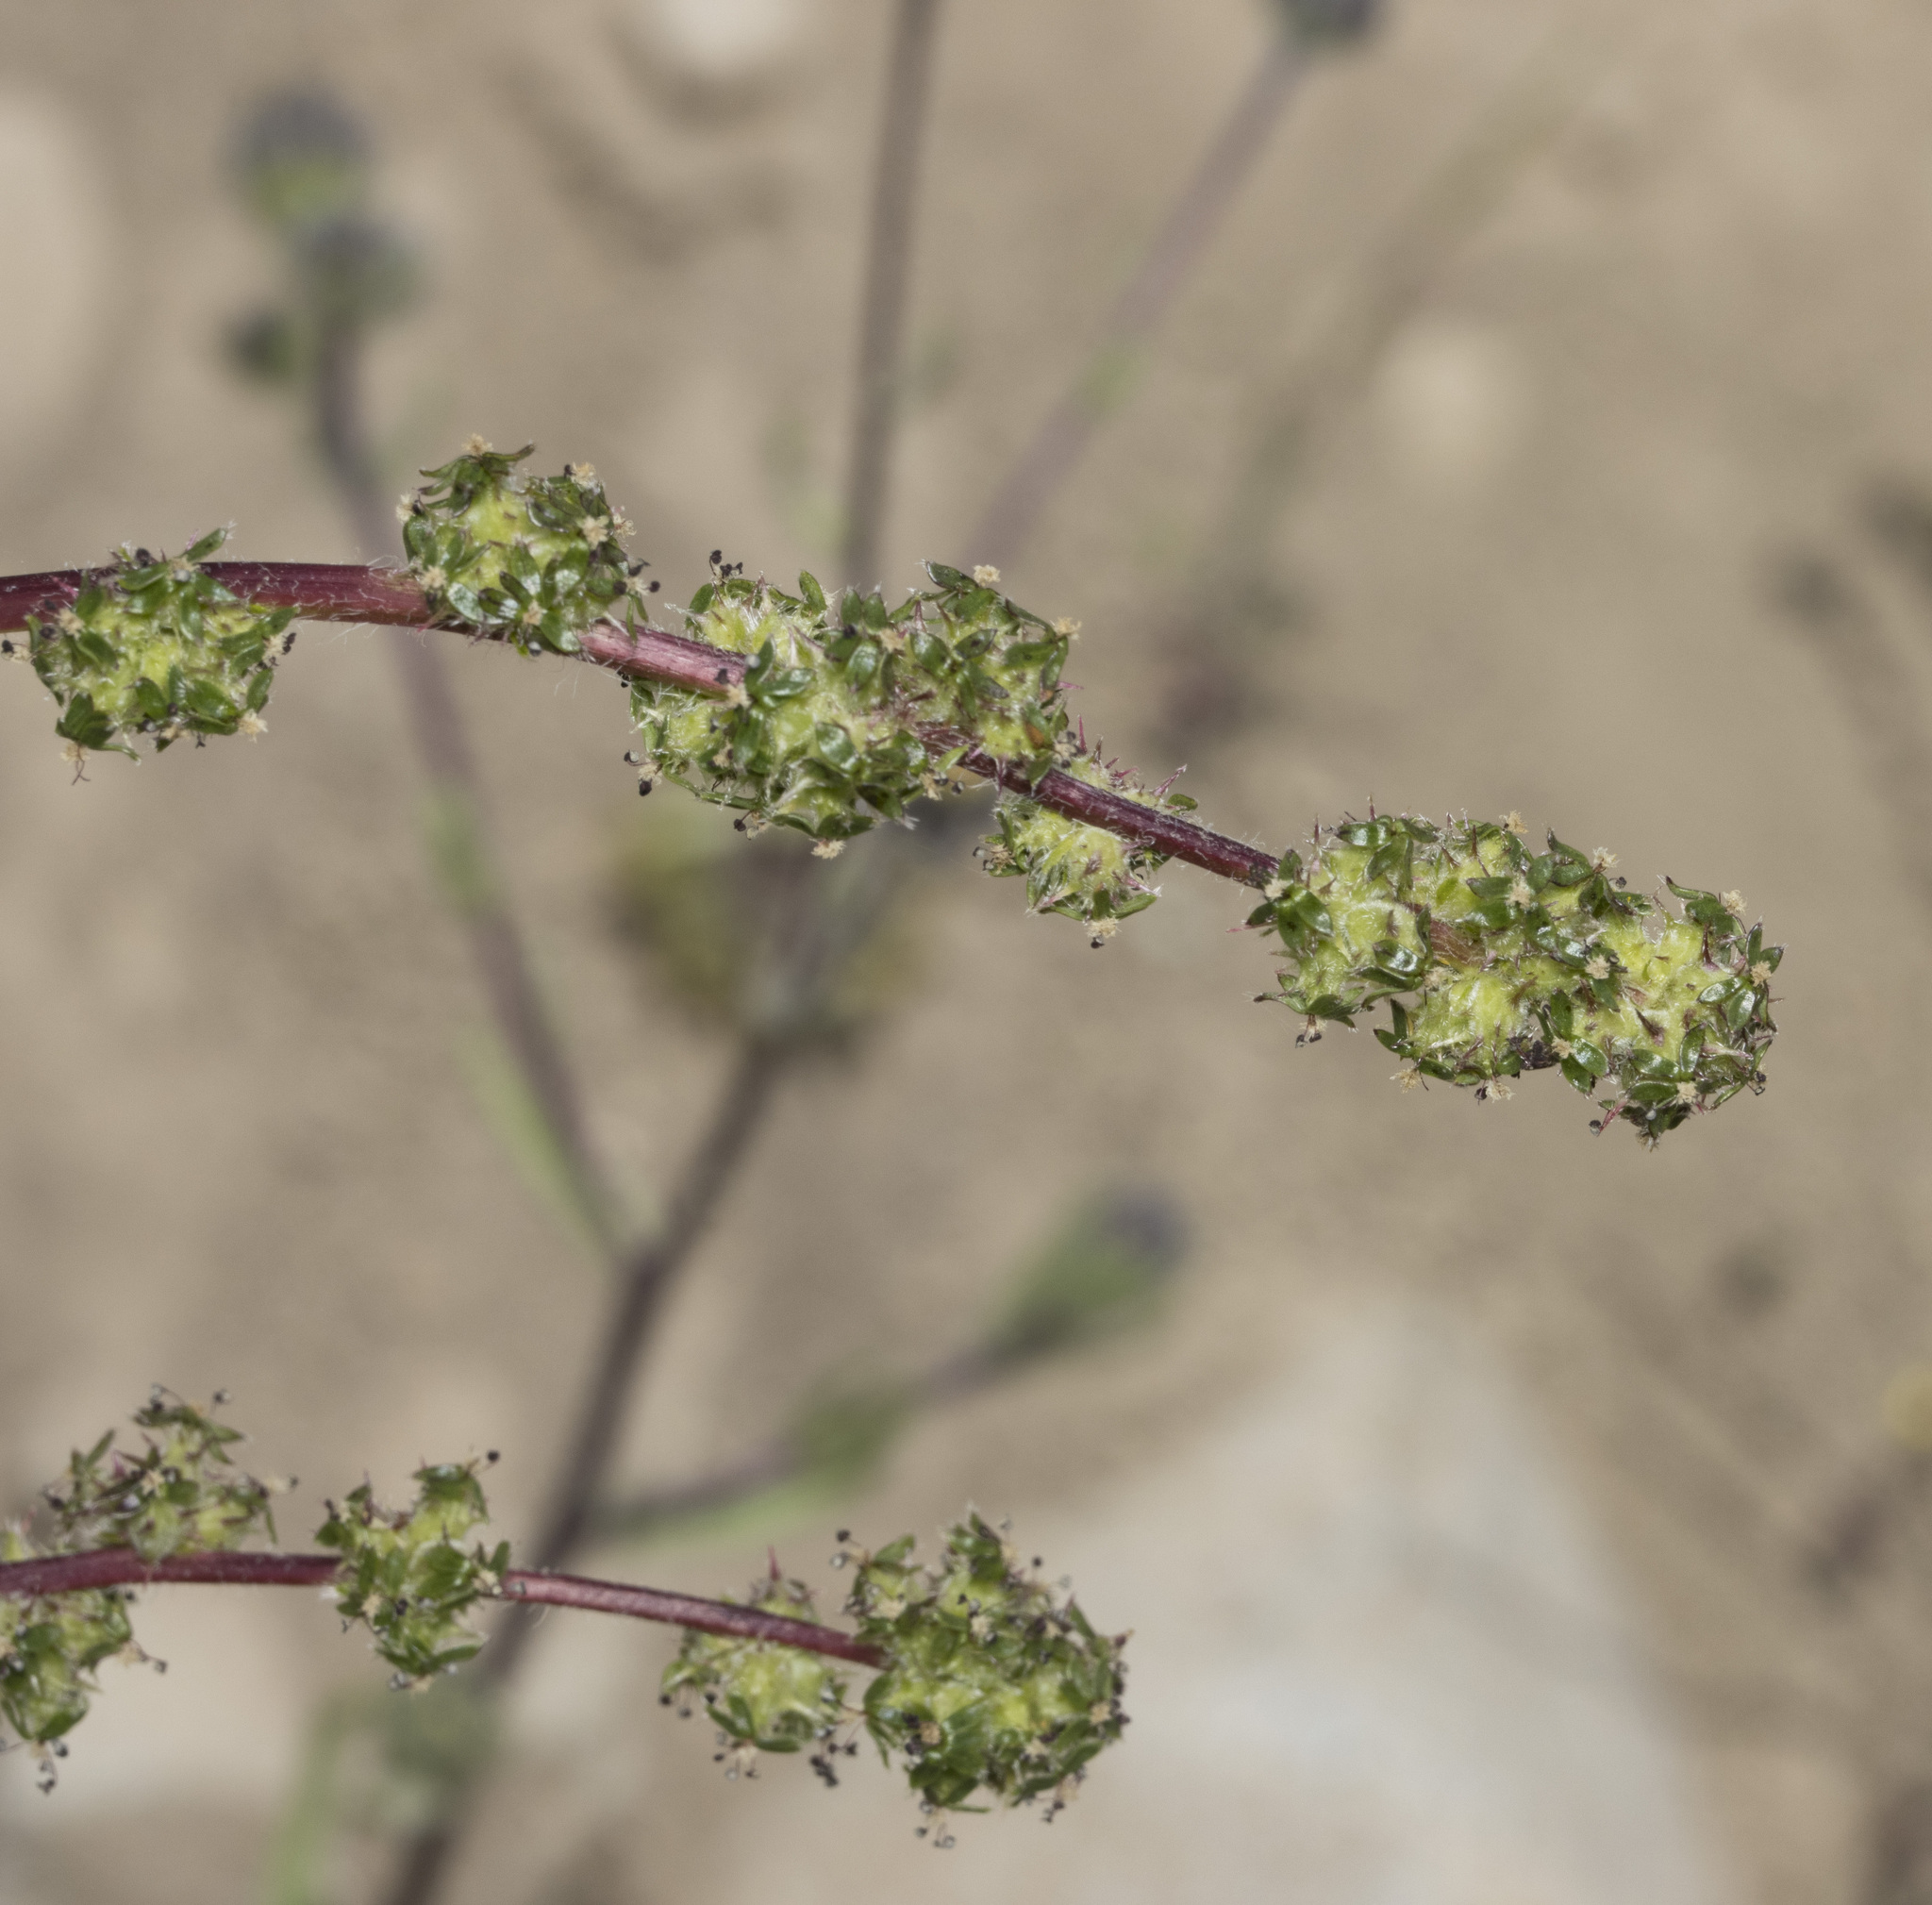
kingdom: Plantae
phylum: Tracheophyta
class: Magnoliopsida
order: Rosales
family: Rosaceae
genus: Acaena
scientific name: Acaena pinnatifida
